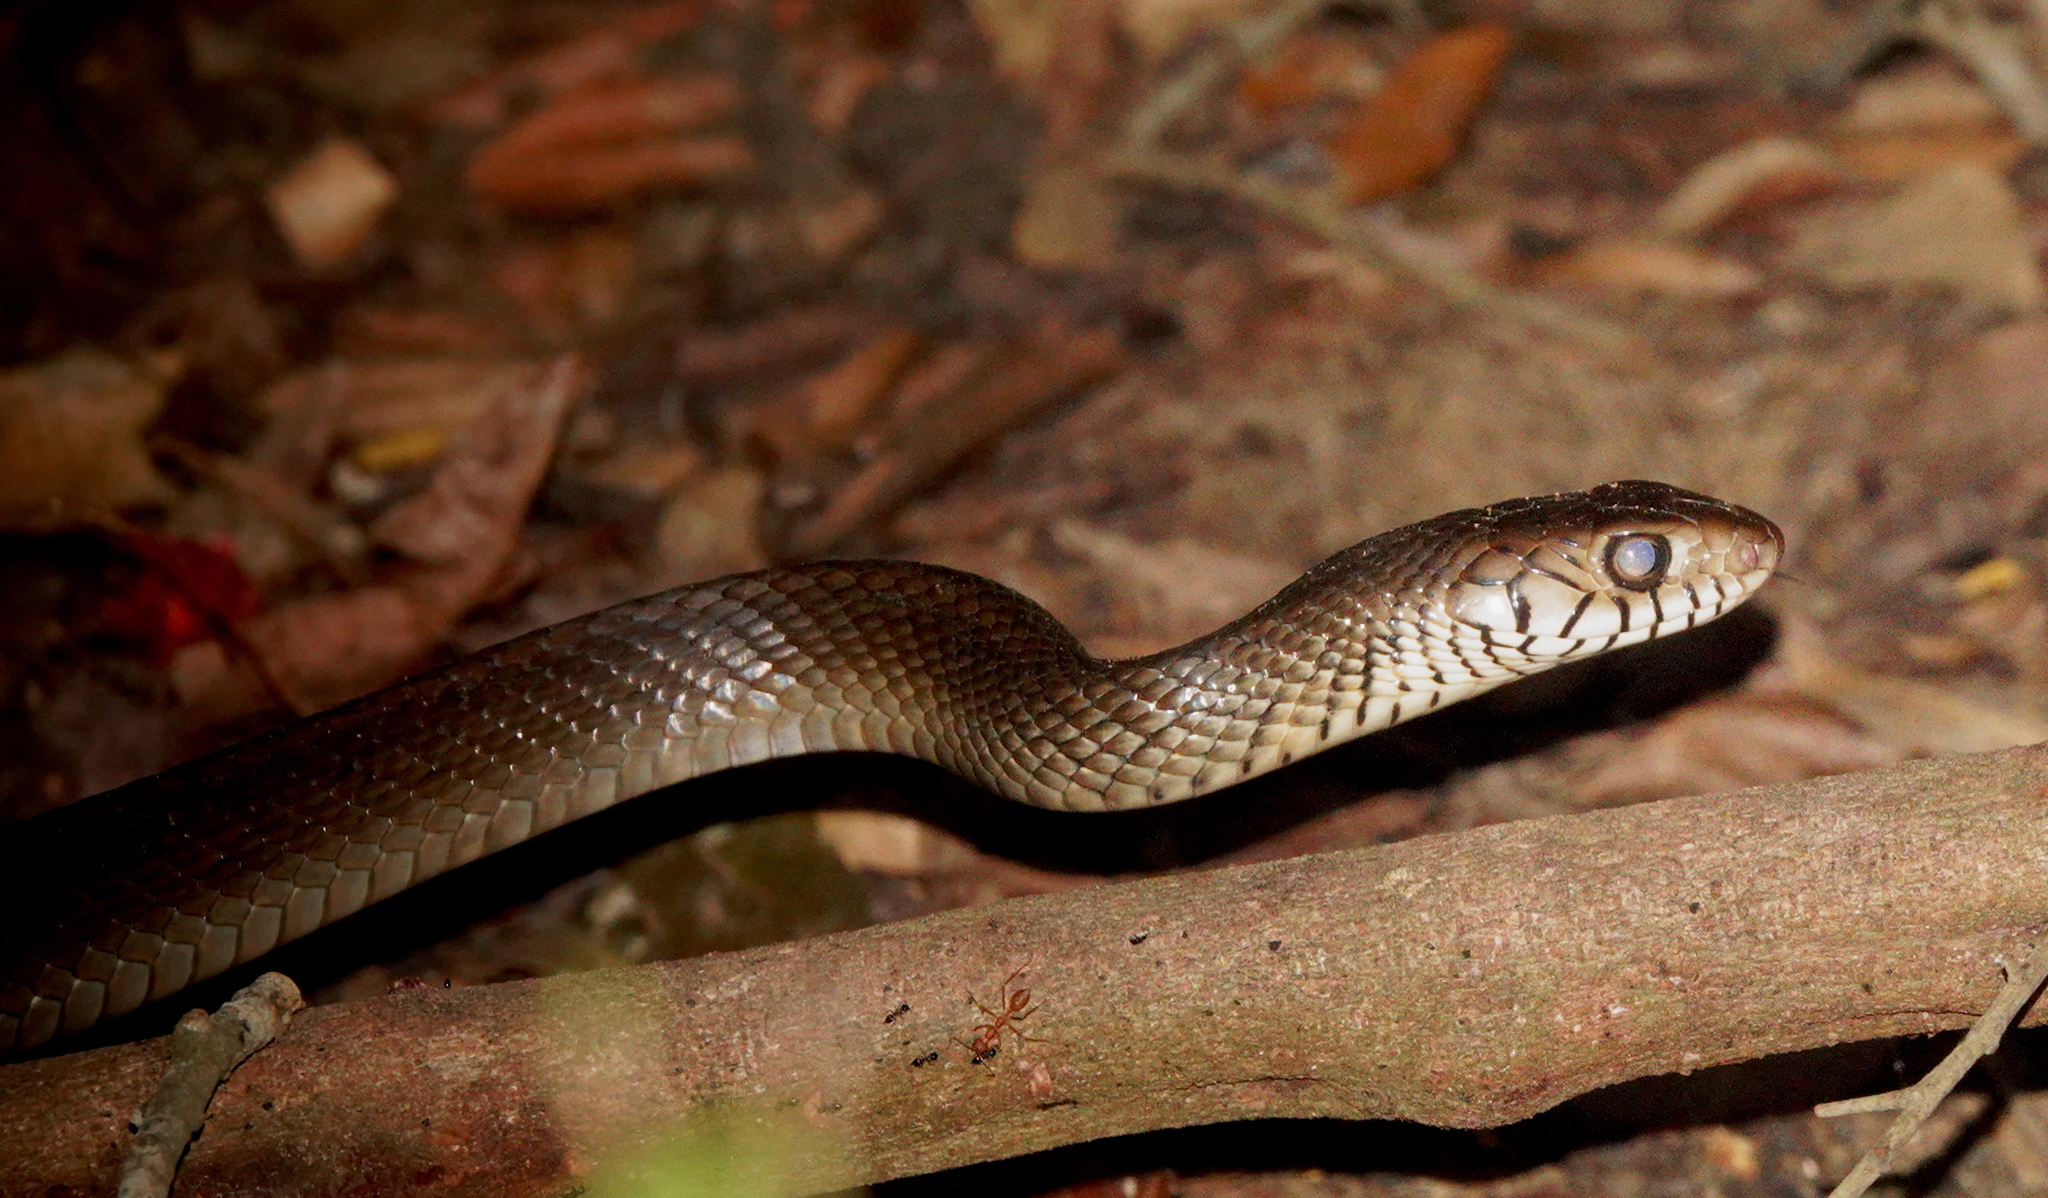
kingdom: Animalia
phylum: Chordata
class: Squamata
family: Colubridae
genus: Ptyas
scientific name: Ptyas mucosa
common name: Oriental ratsnake
